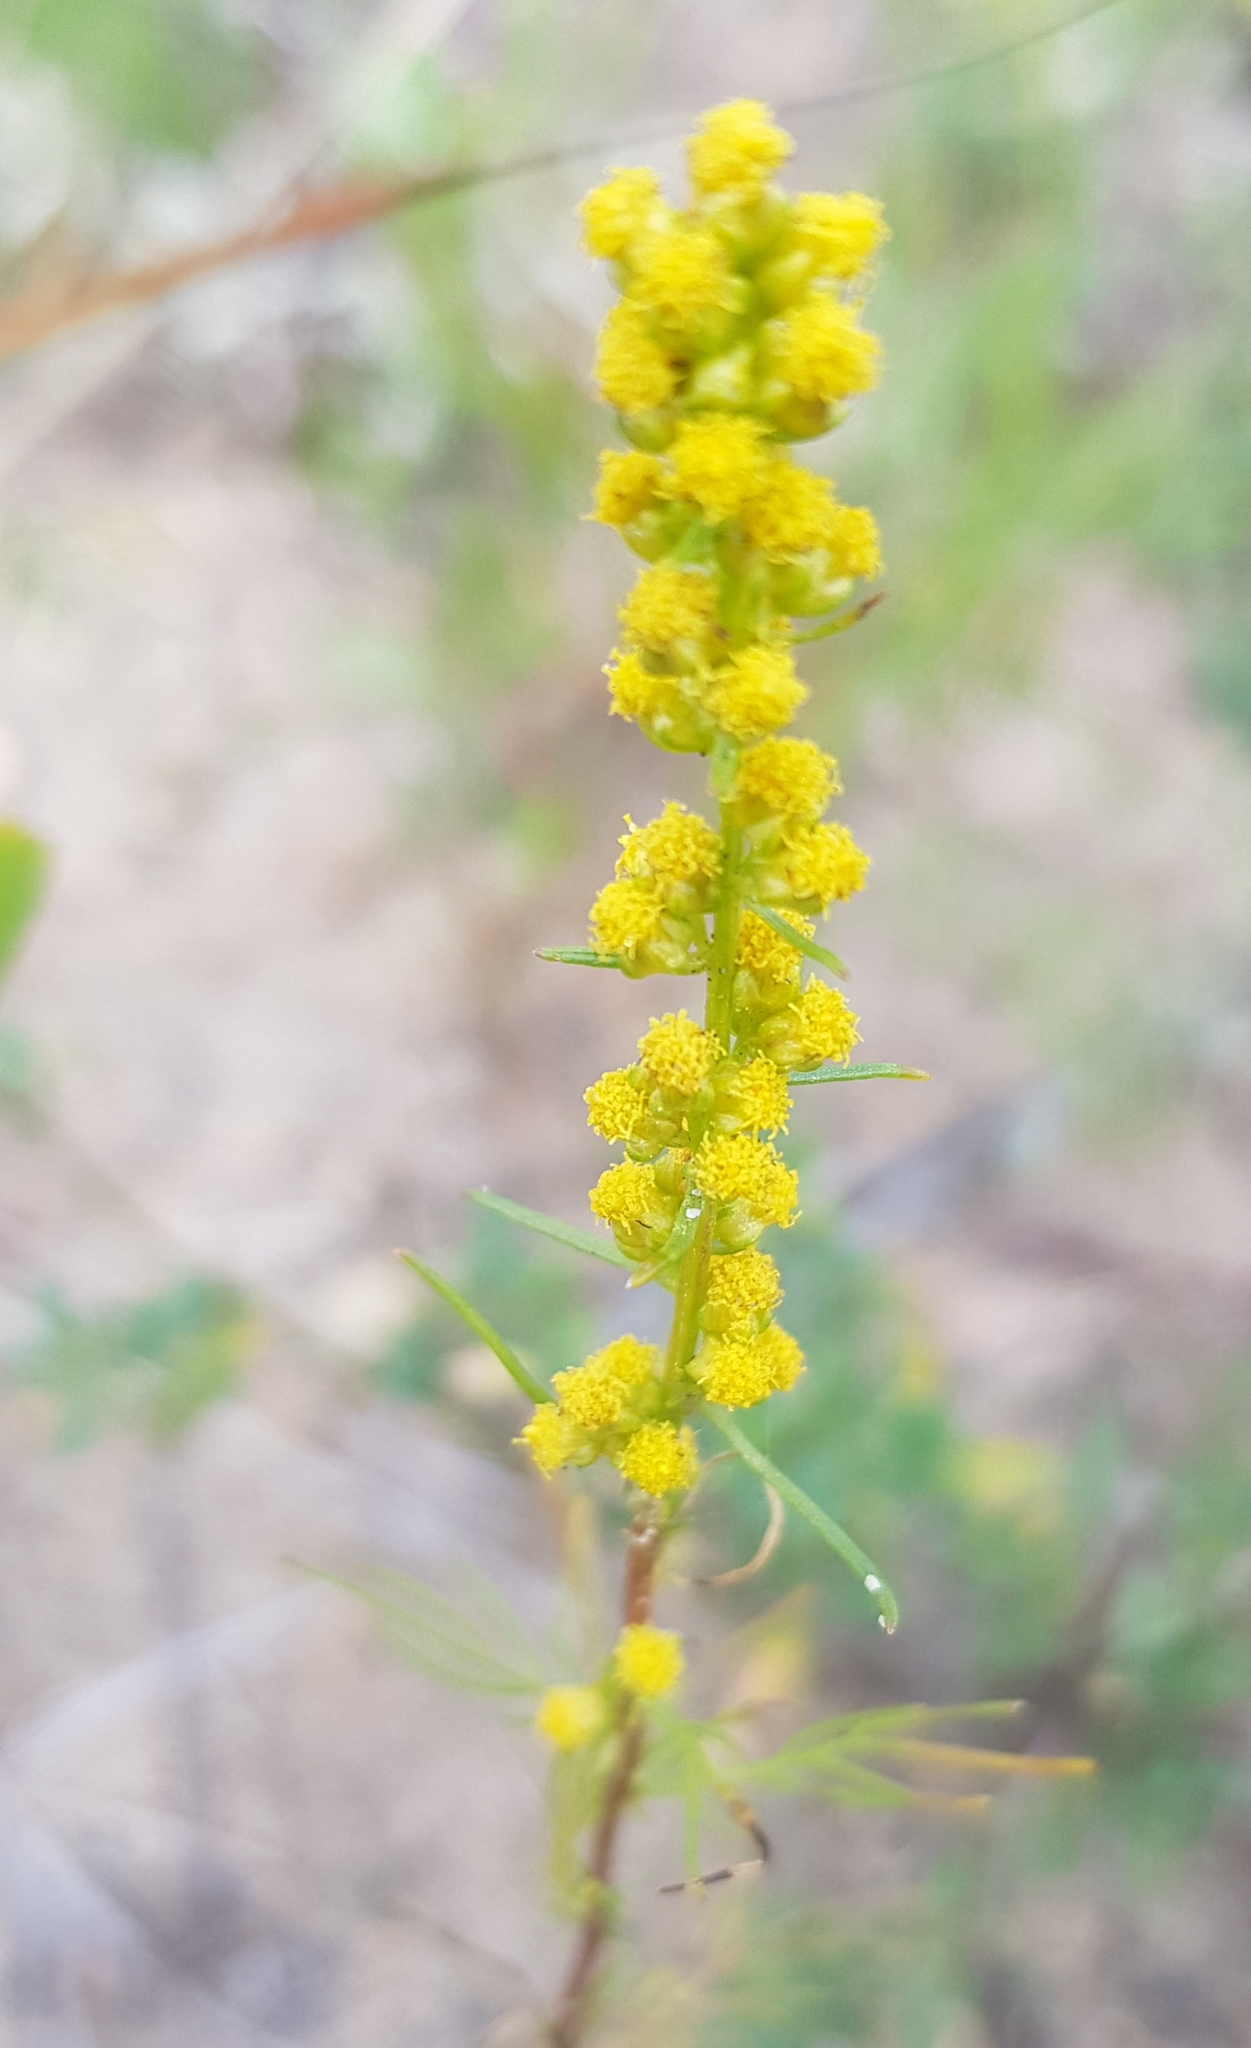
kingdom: Plantae
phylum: Tracheophyta
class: Magnoliopsida
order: Asterales
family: Asteraceae
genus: Artemisia
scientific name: Artemisia palustris
